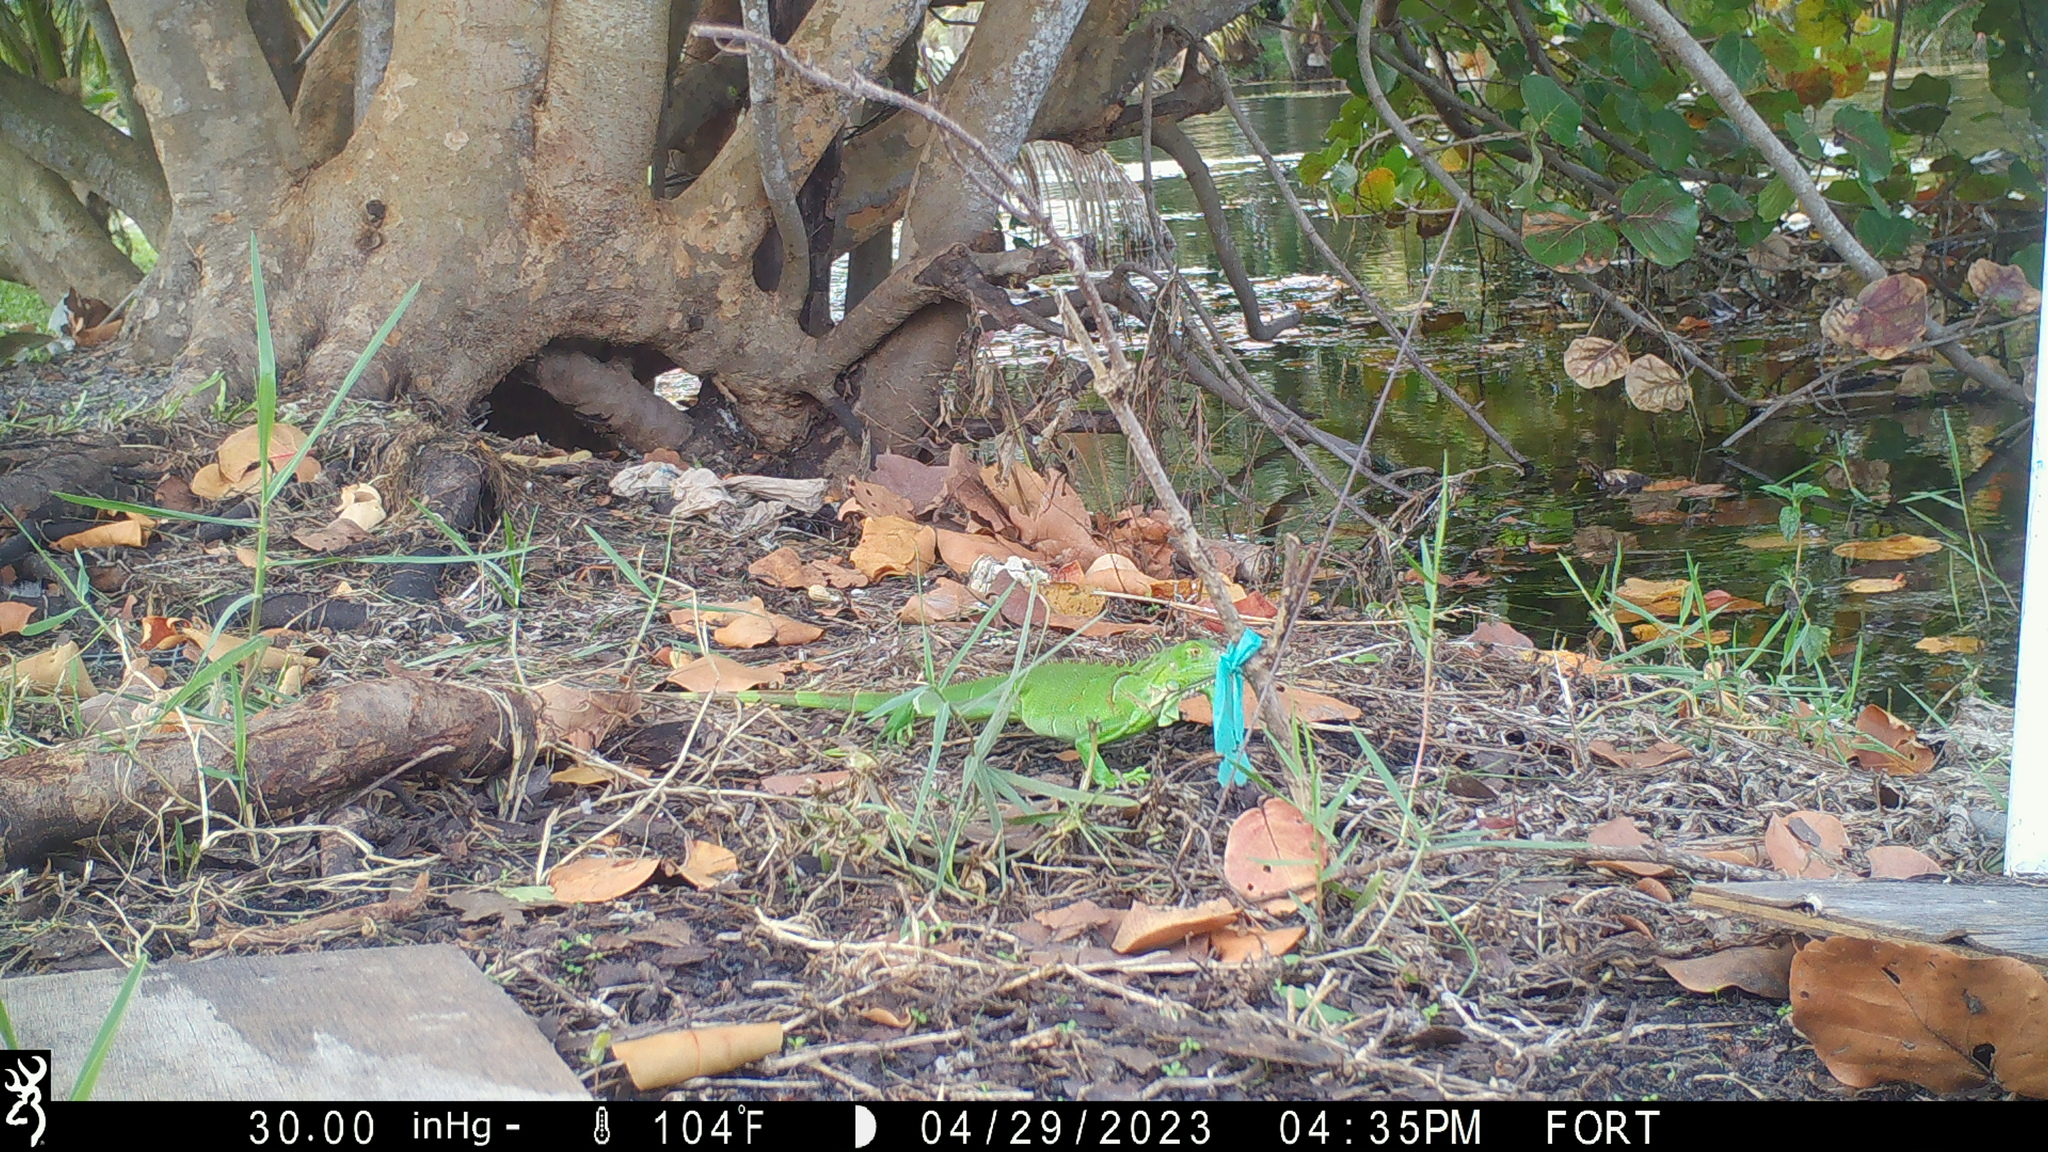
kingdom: Animalia
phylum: Chordata
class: Squamata
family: Iguanidae
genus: Iguana
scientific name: Iguana iguana
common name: Green iguana
